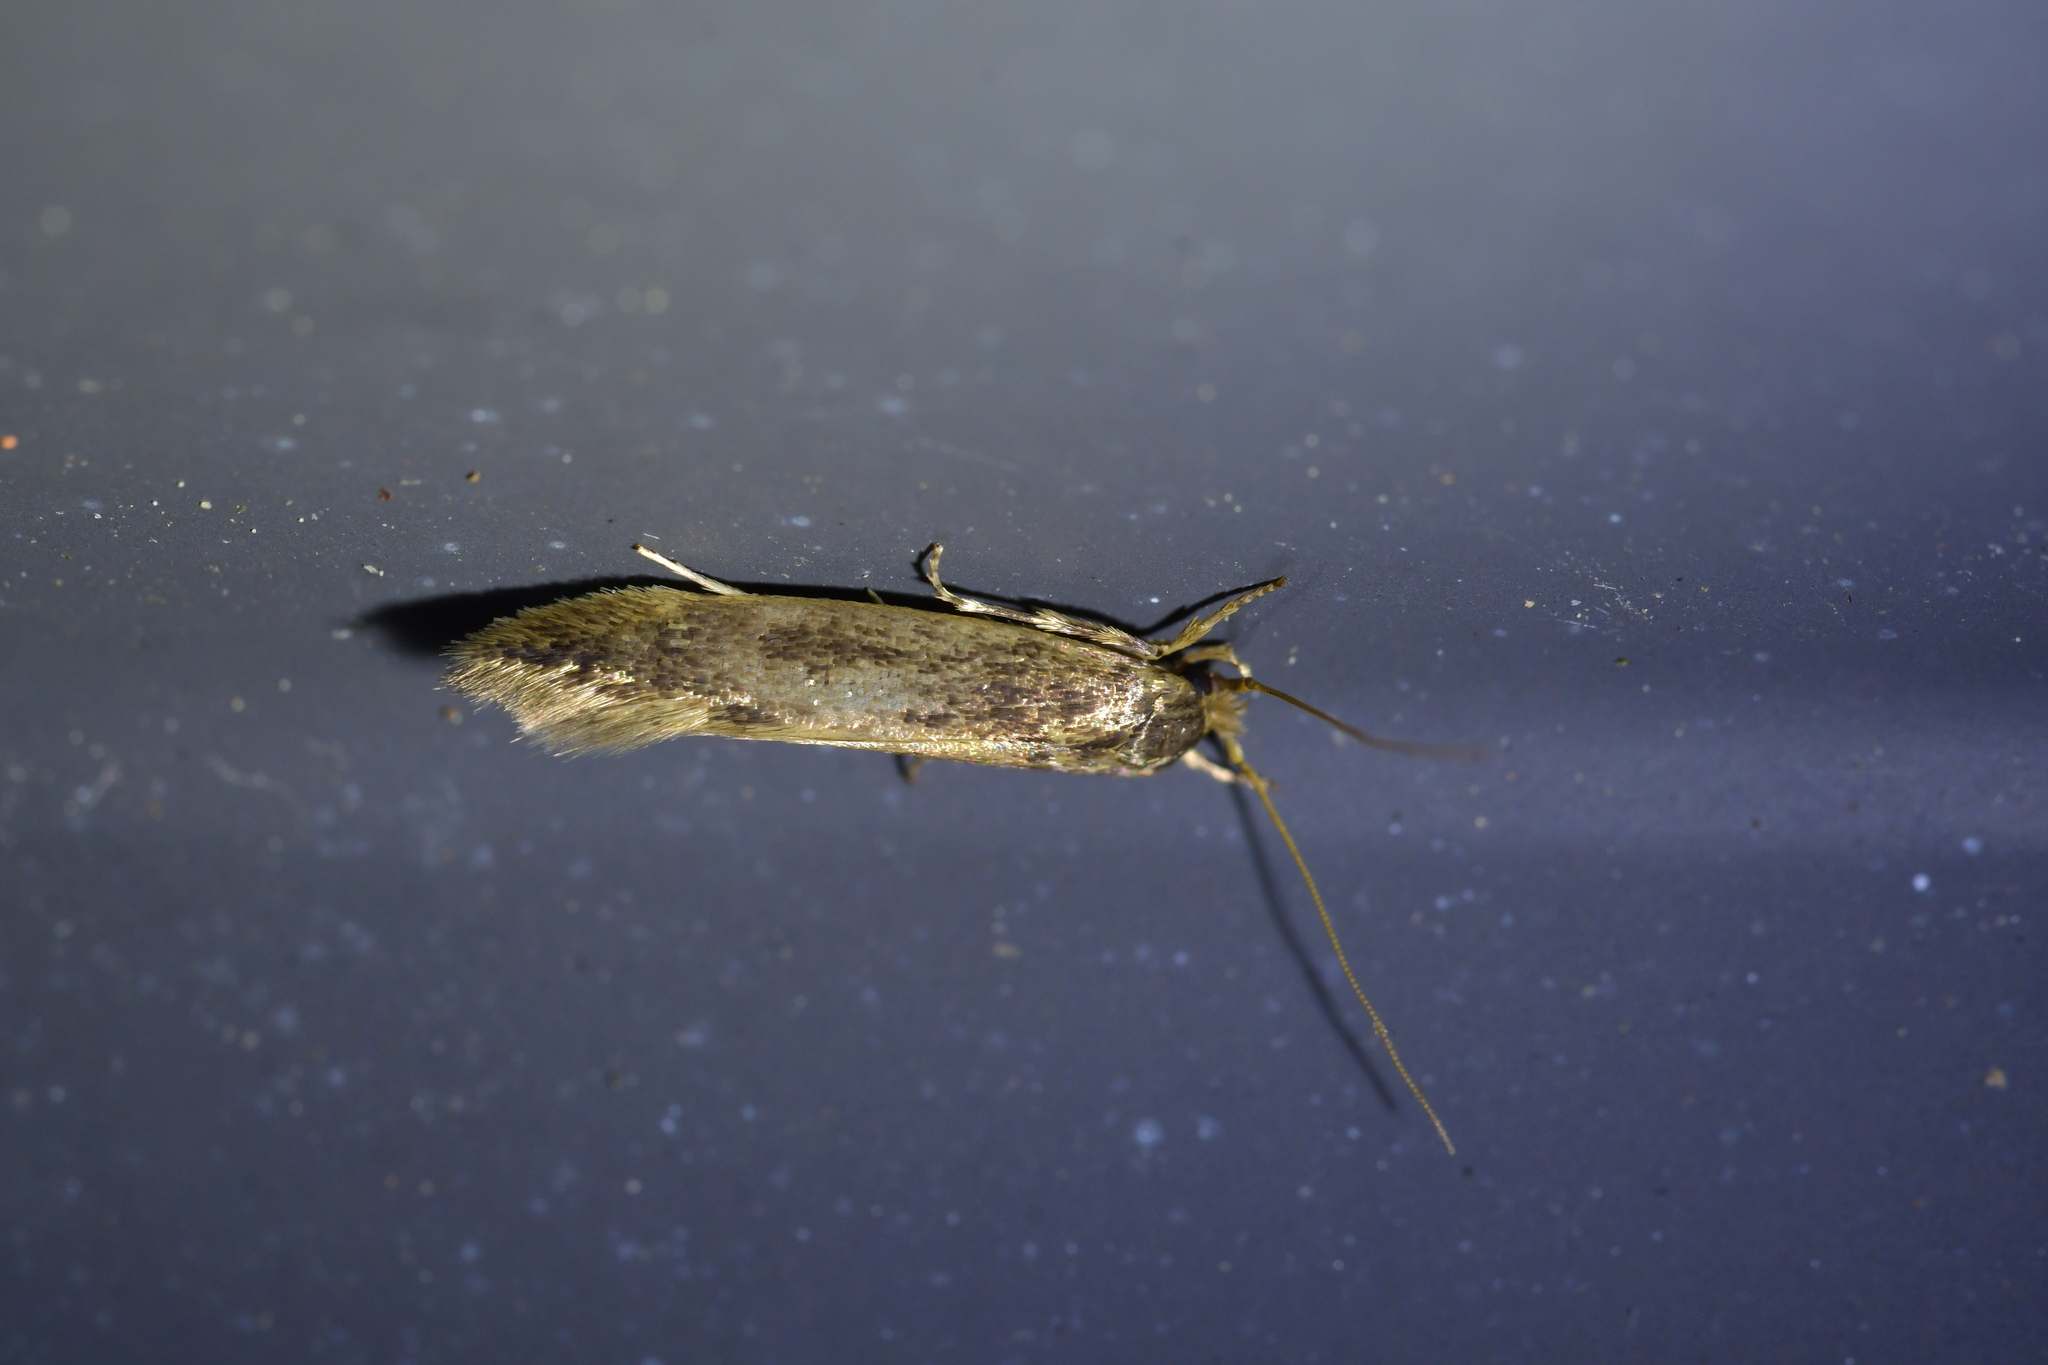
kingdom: Animalia
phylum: Arthropoda
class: Insecta
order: Lepidoptera
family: Tineidae
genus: Opogona
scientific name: Opogona omoscopa
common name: Moth
